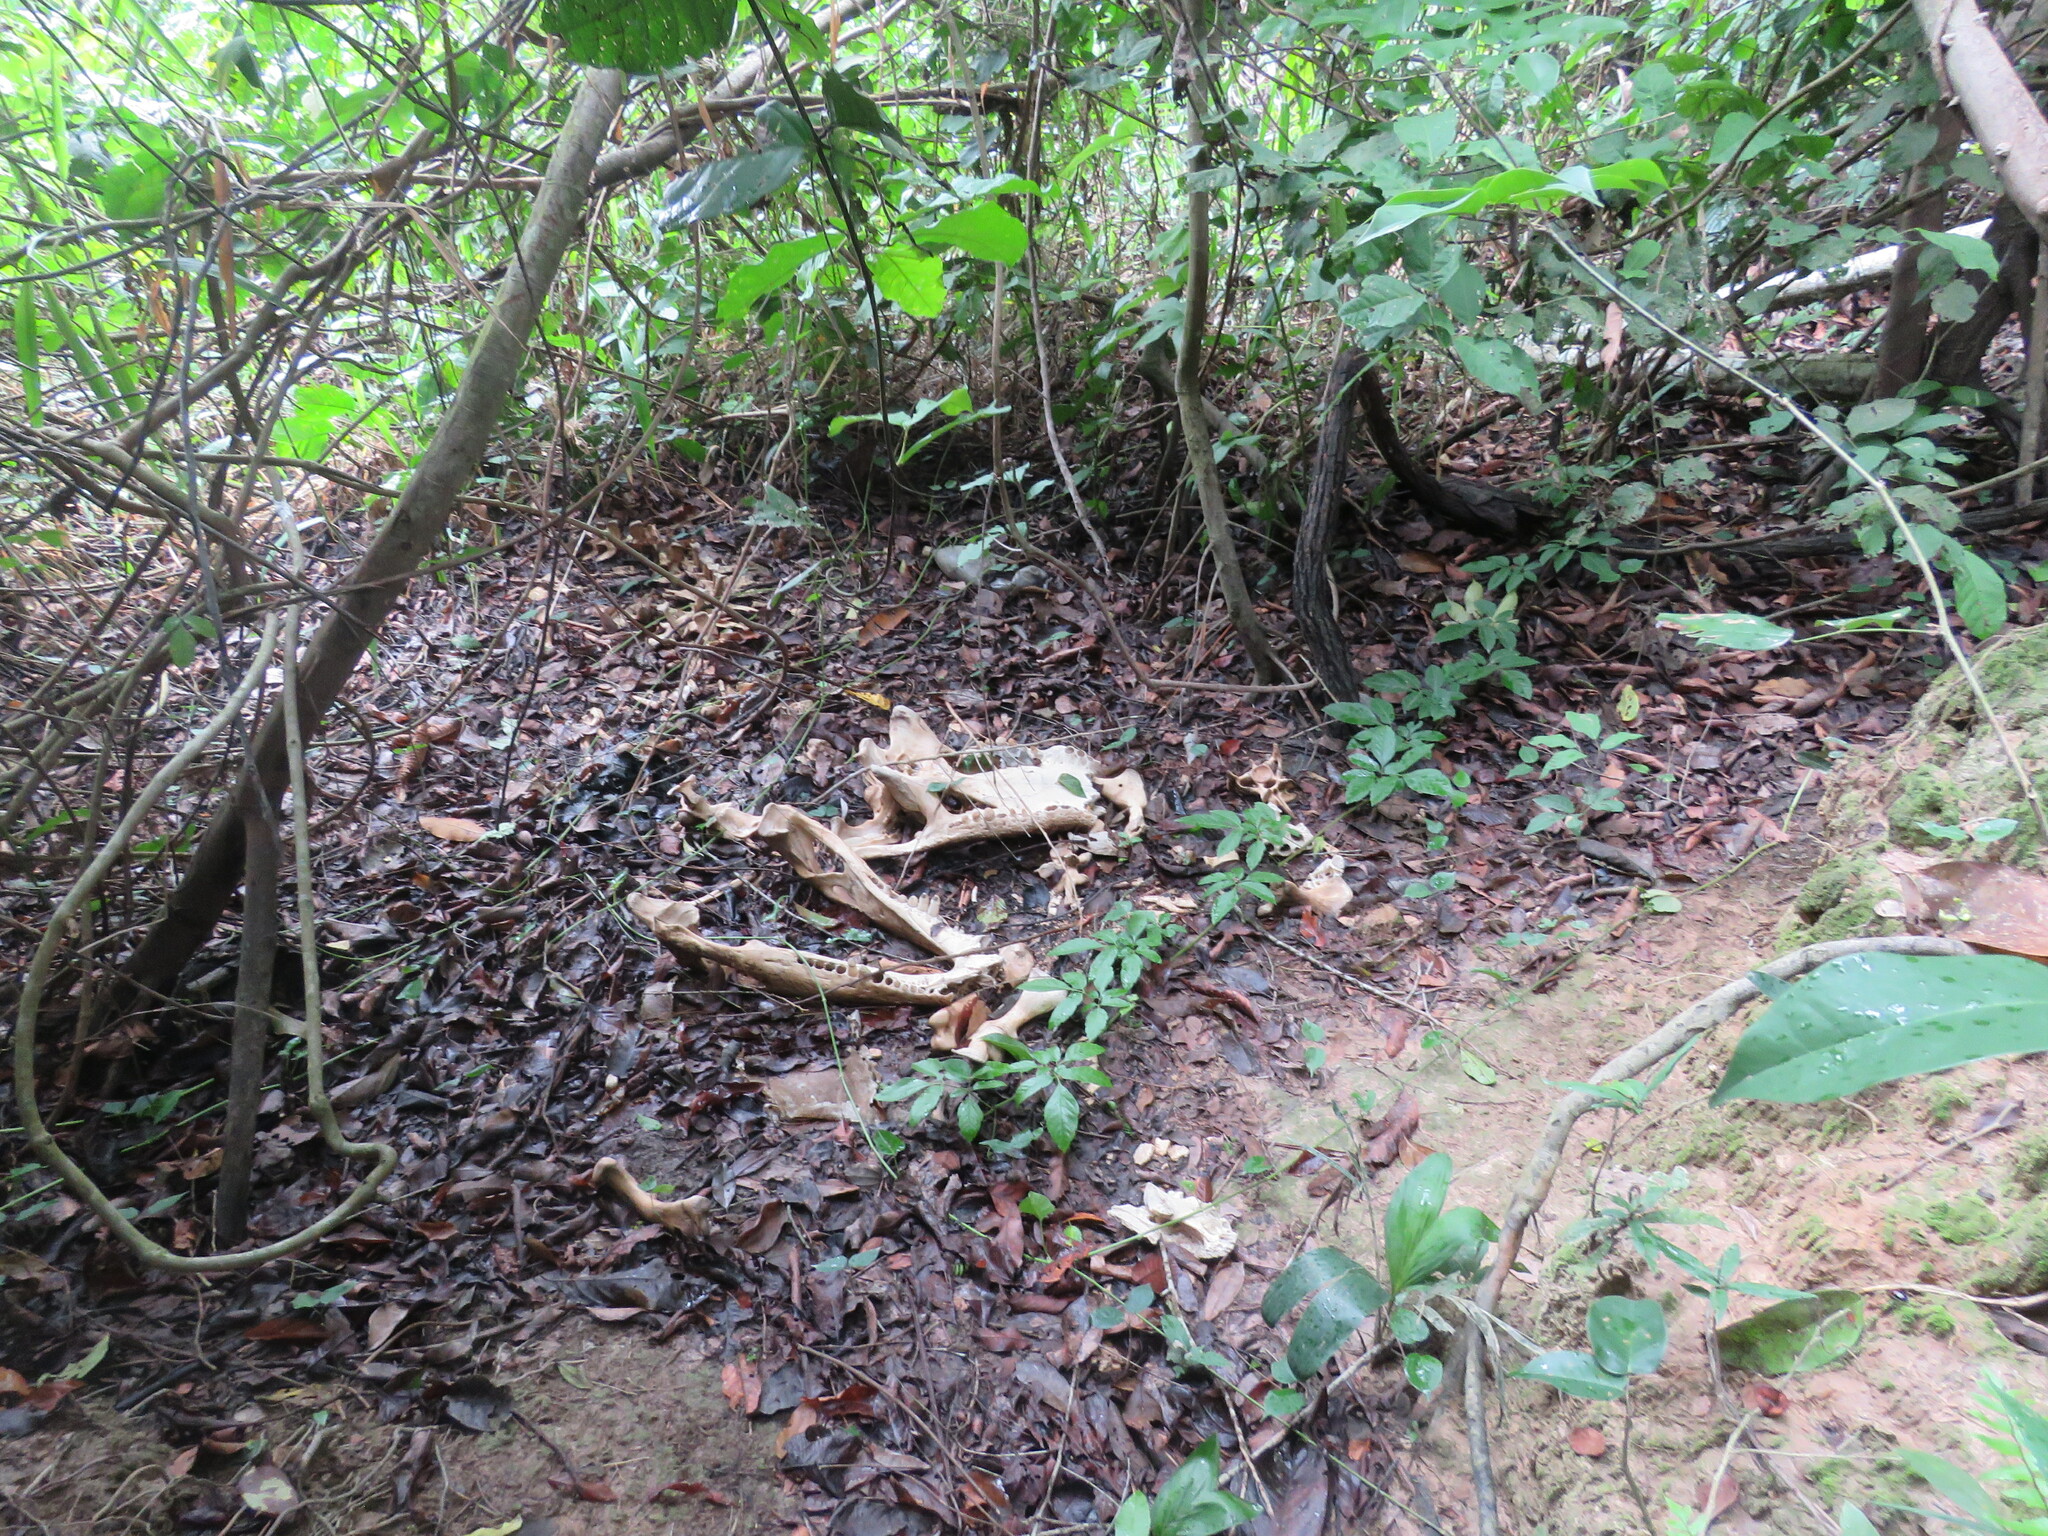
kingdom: Animalia
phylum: Chordata
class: Crocodylia
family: Alligatoridae
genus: Melanosuchus
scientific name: Melanosuchus niger
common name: Black caiman
